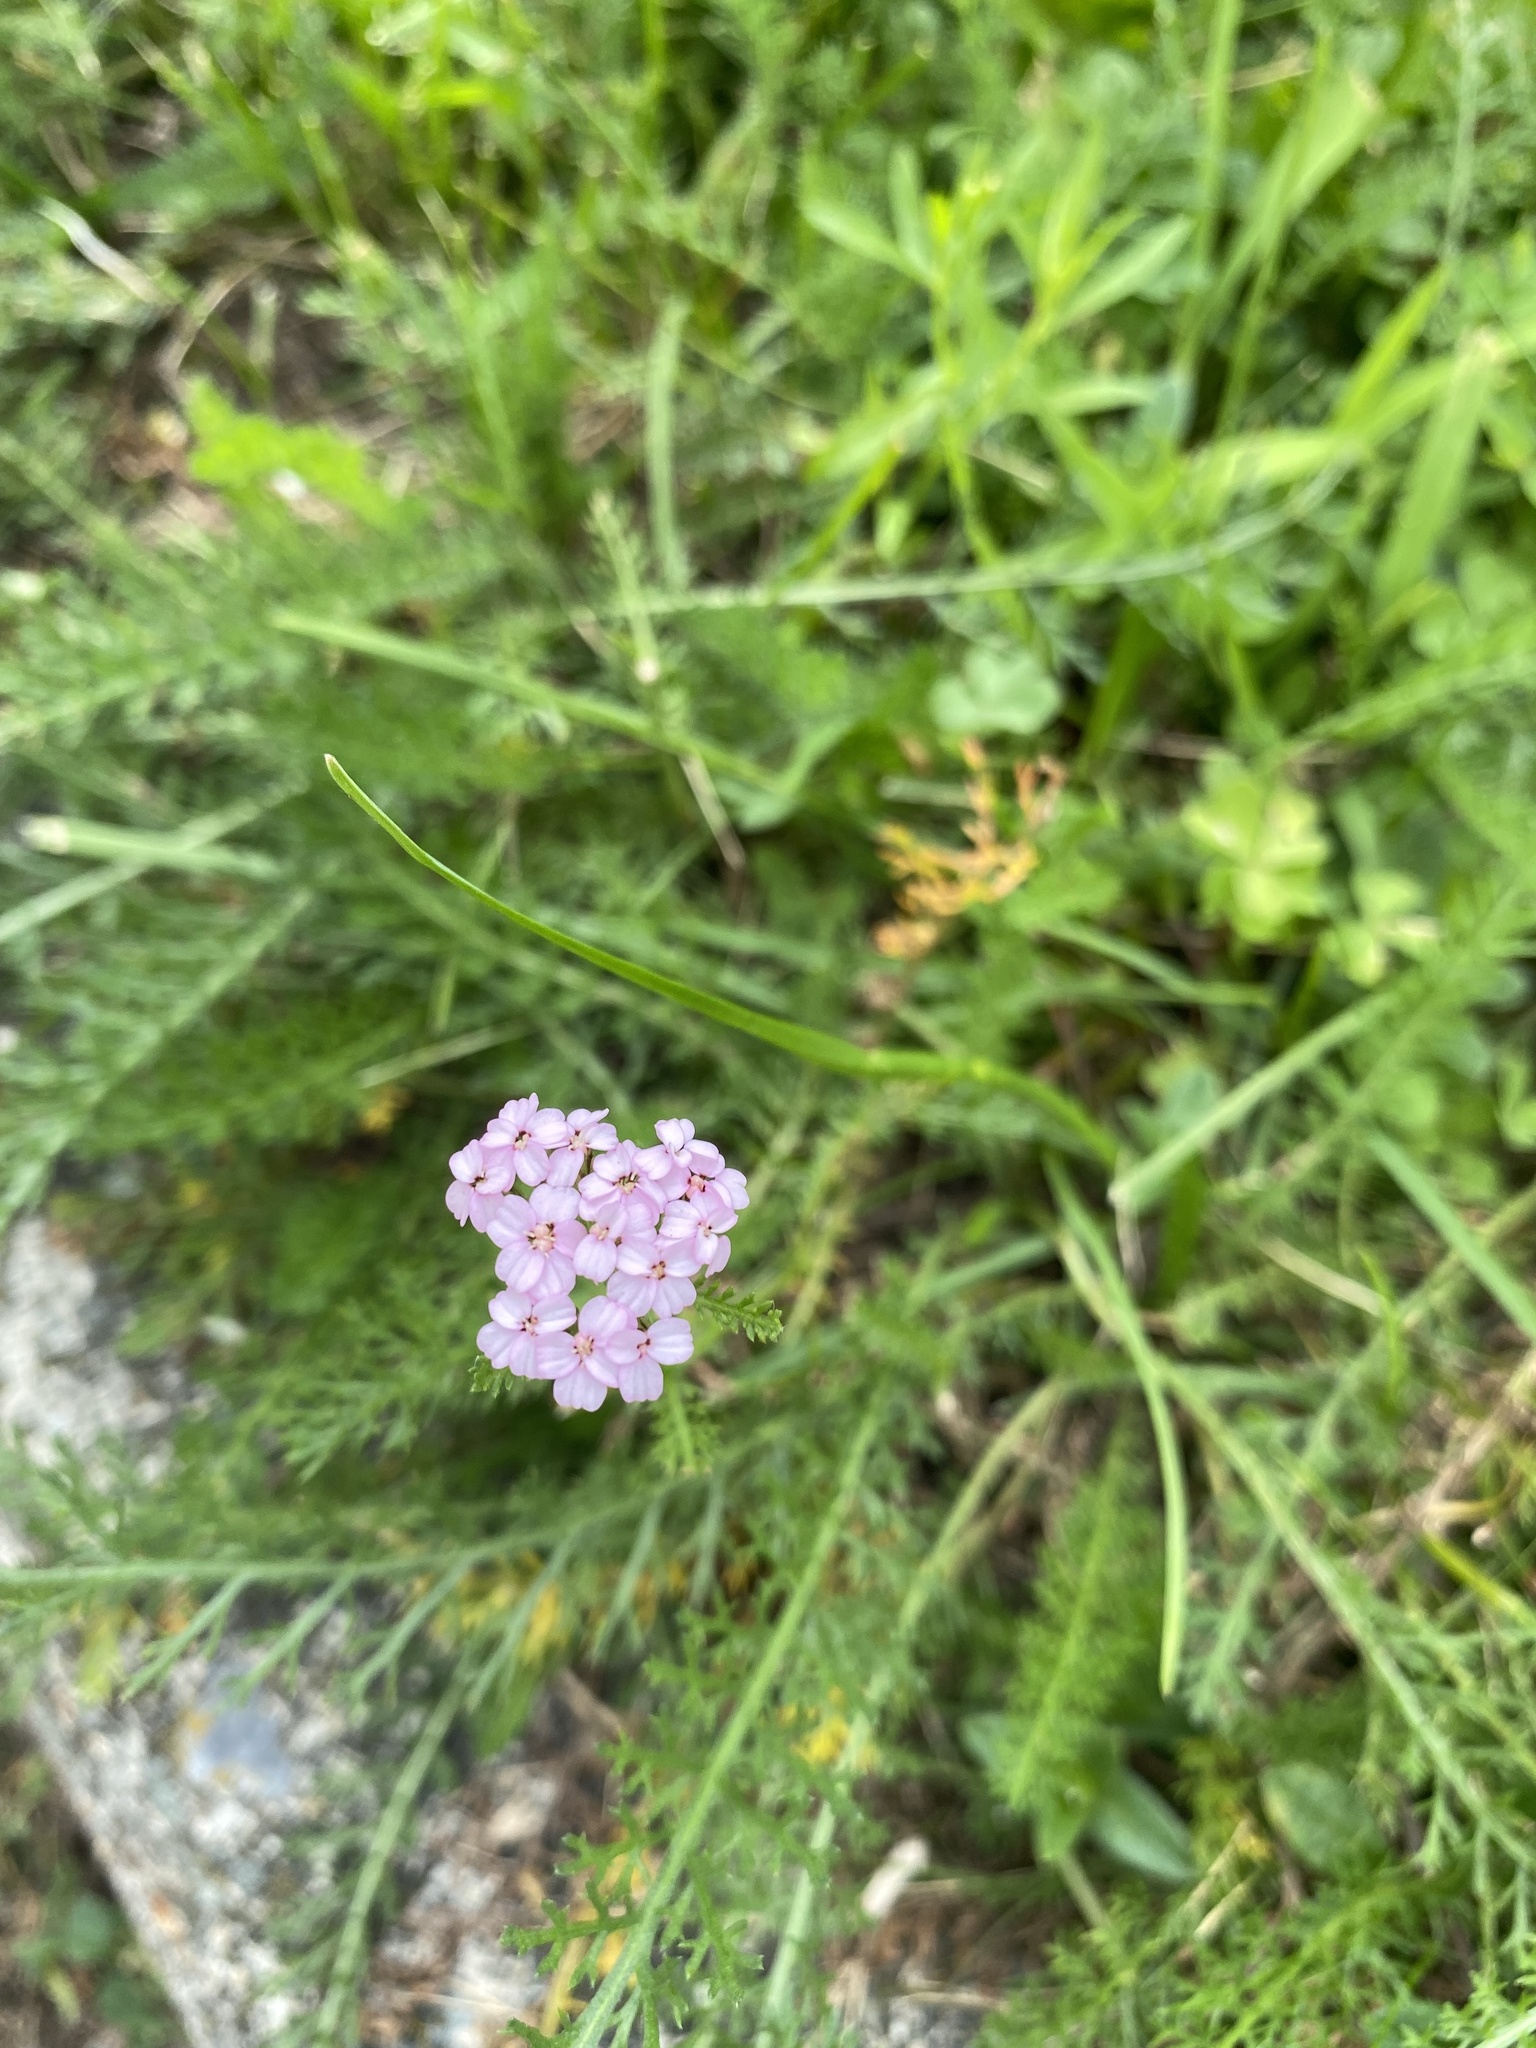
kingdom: Plantae
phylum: Tracheophyta
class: Magnoliopsida
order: Asterales
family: Asteraceae
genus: Achillea
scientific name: Achillea millefolium
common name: Yarrow
